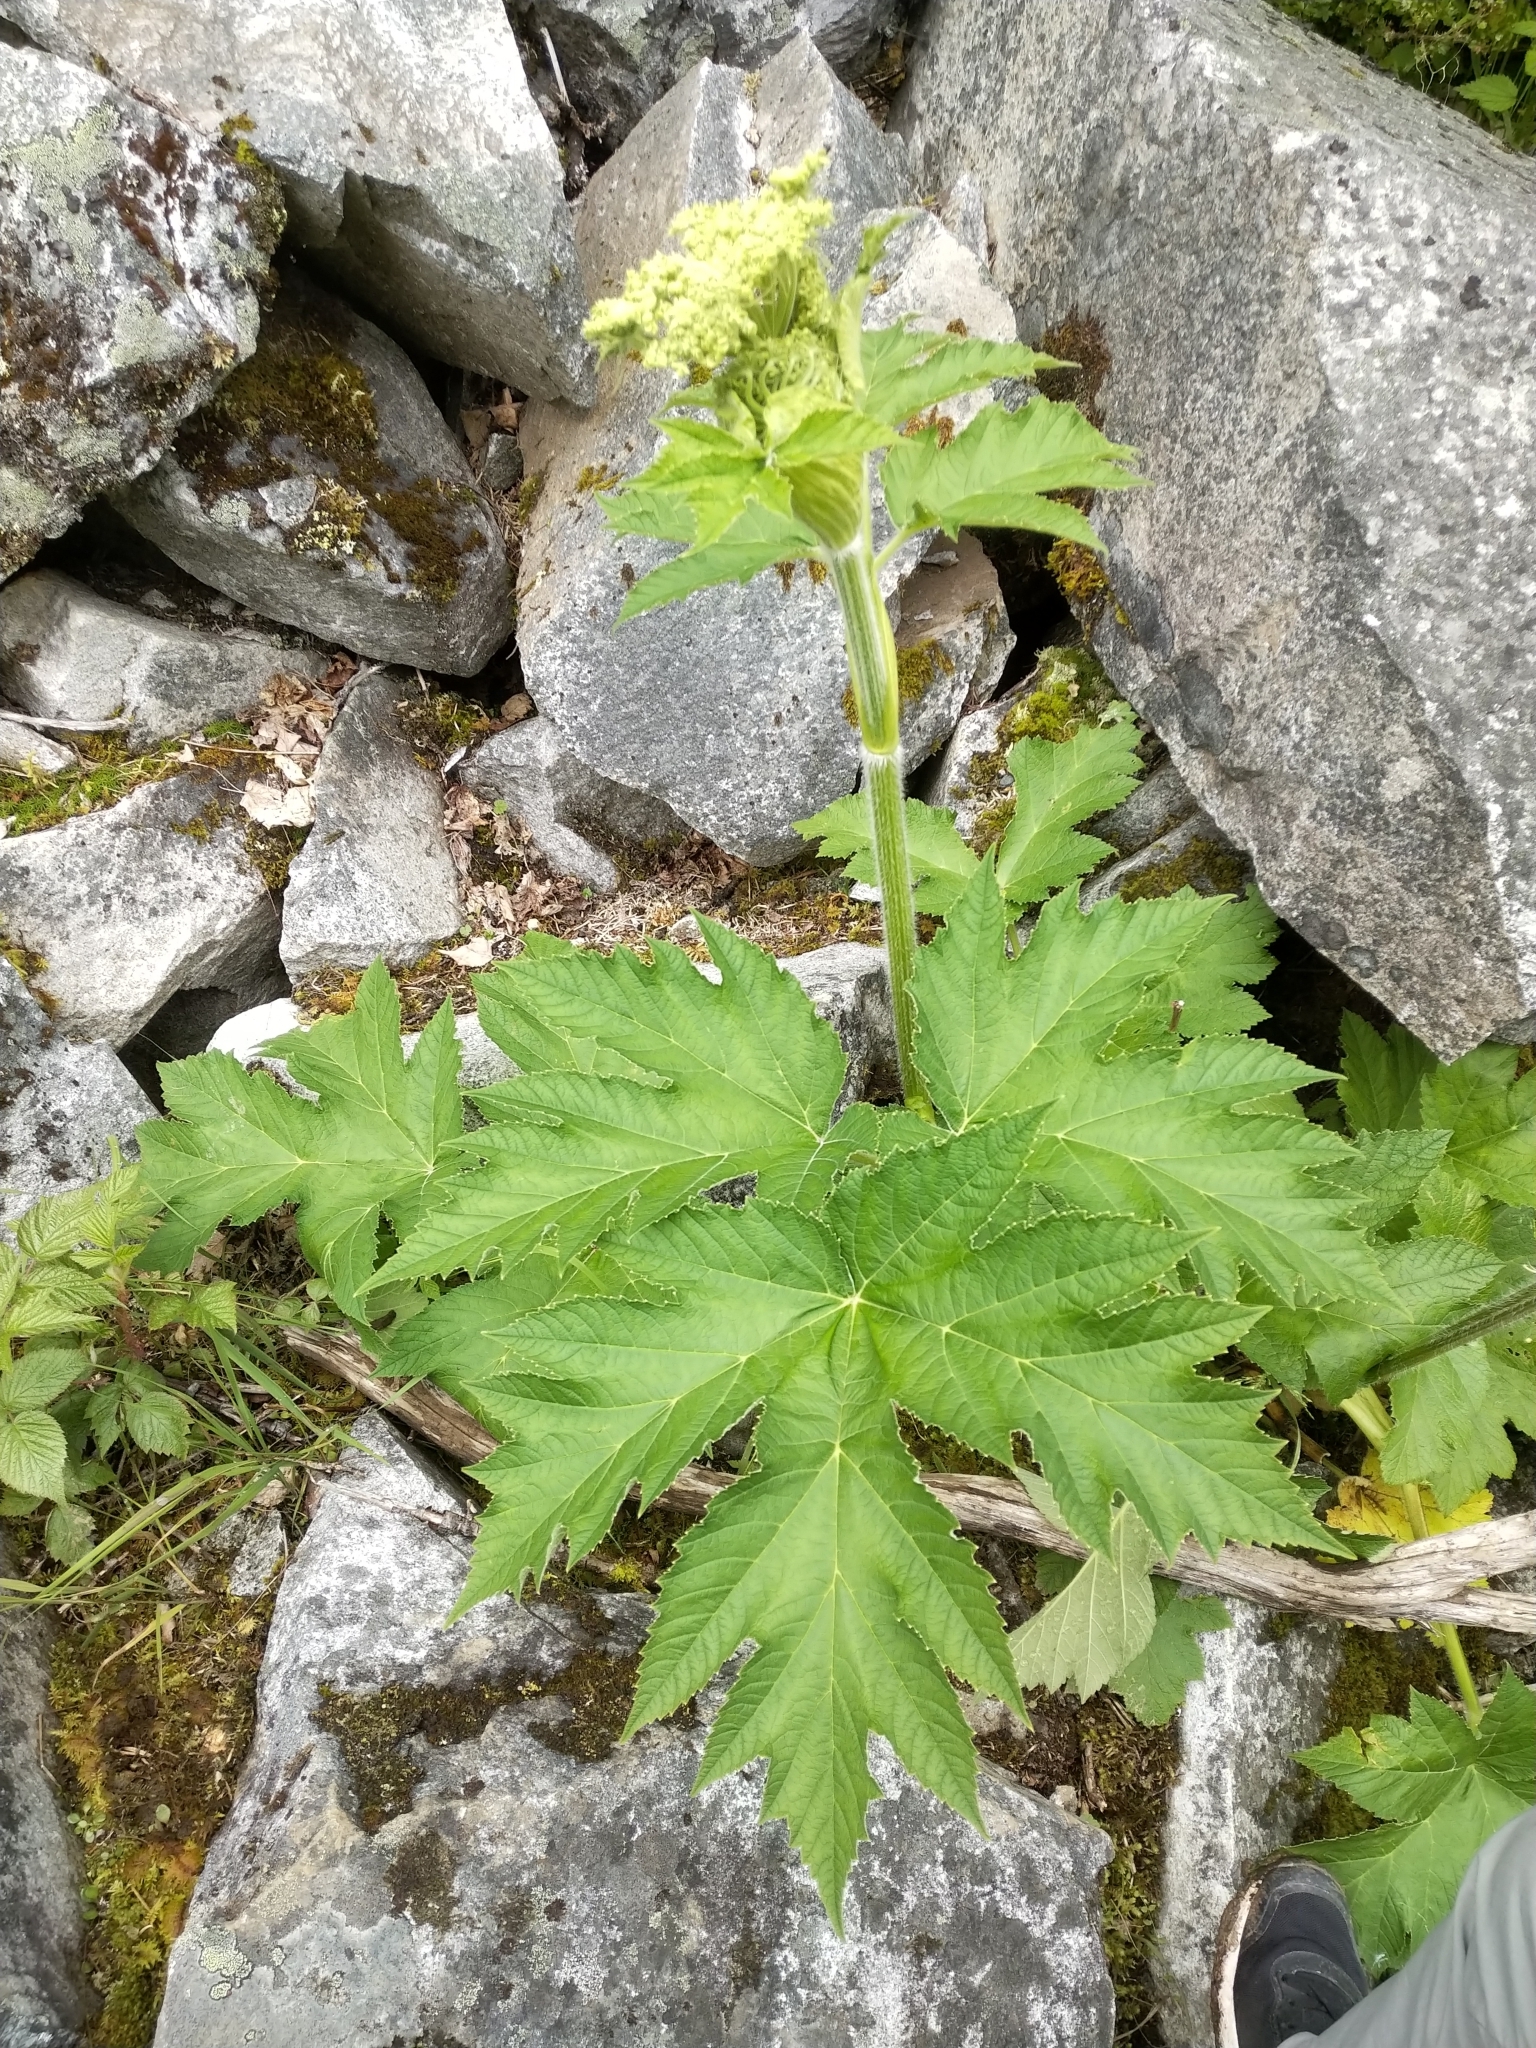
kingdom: Plantae
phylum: Tracheophyta
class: Magnoliopsida
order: Apiales
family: Apiaceae
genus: Heracleum
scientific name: Heracleum maximum
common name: American cow parsnip
